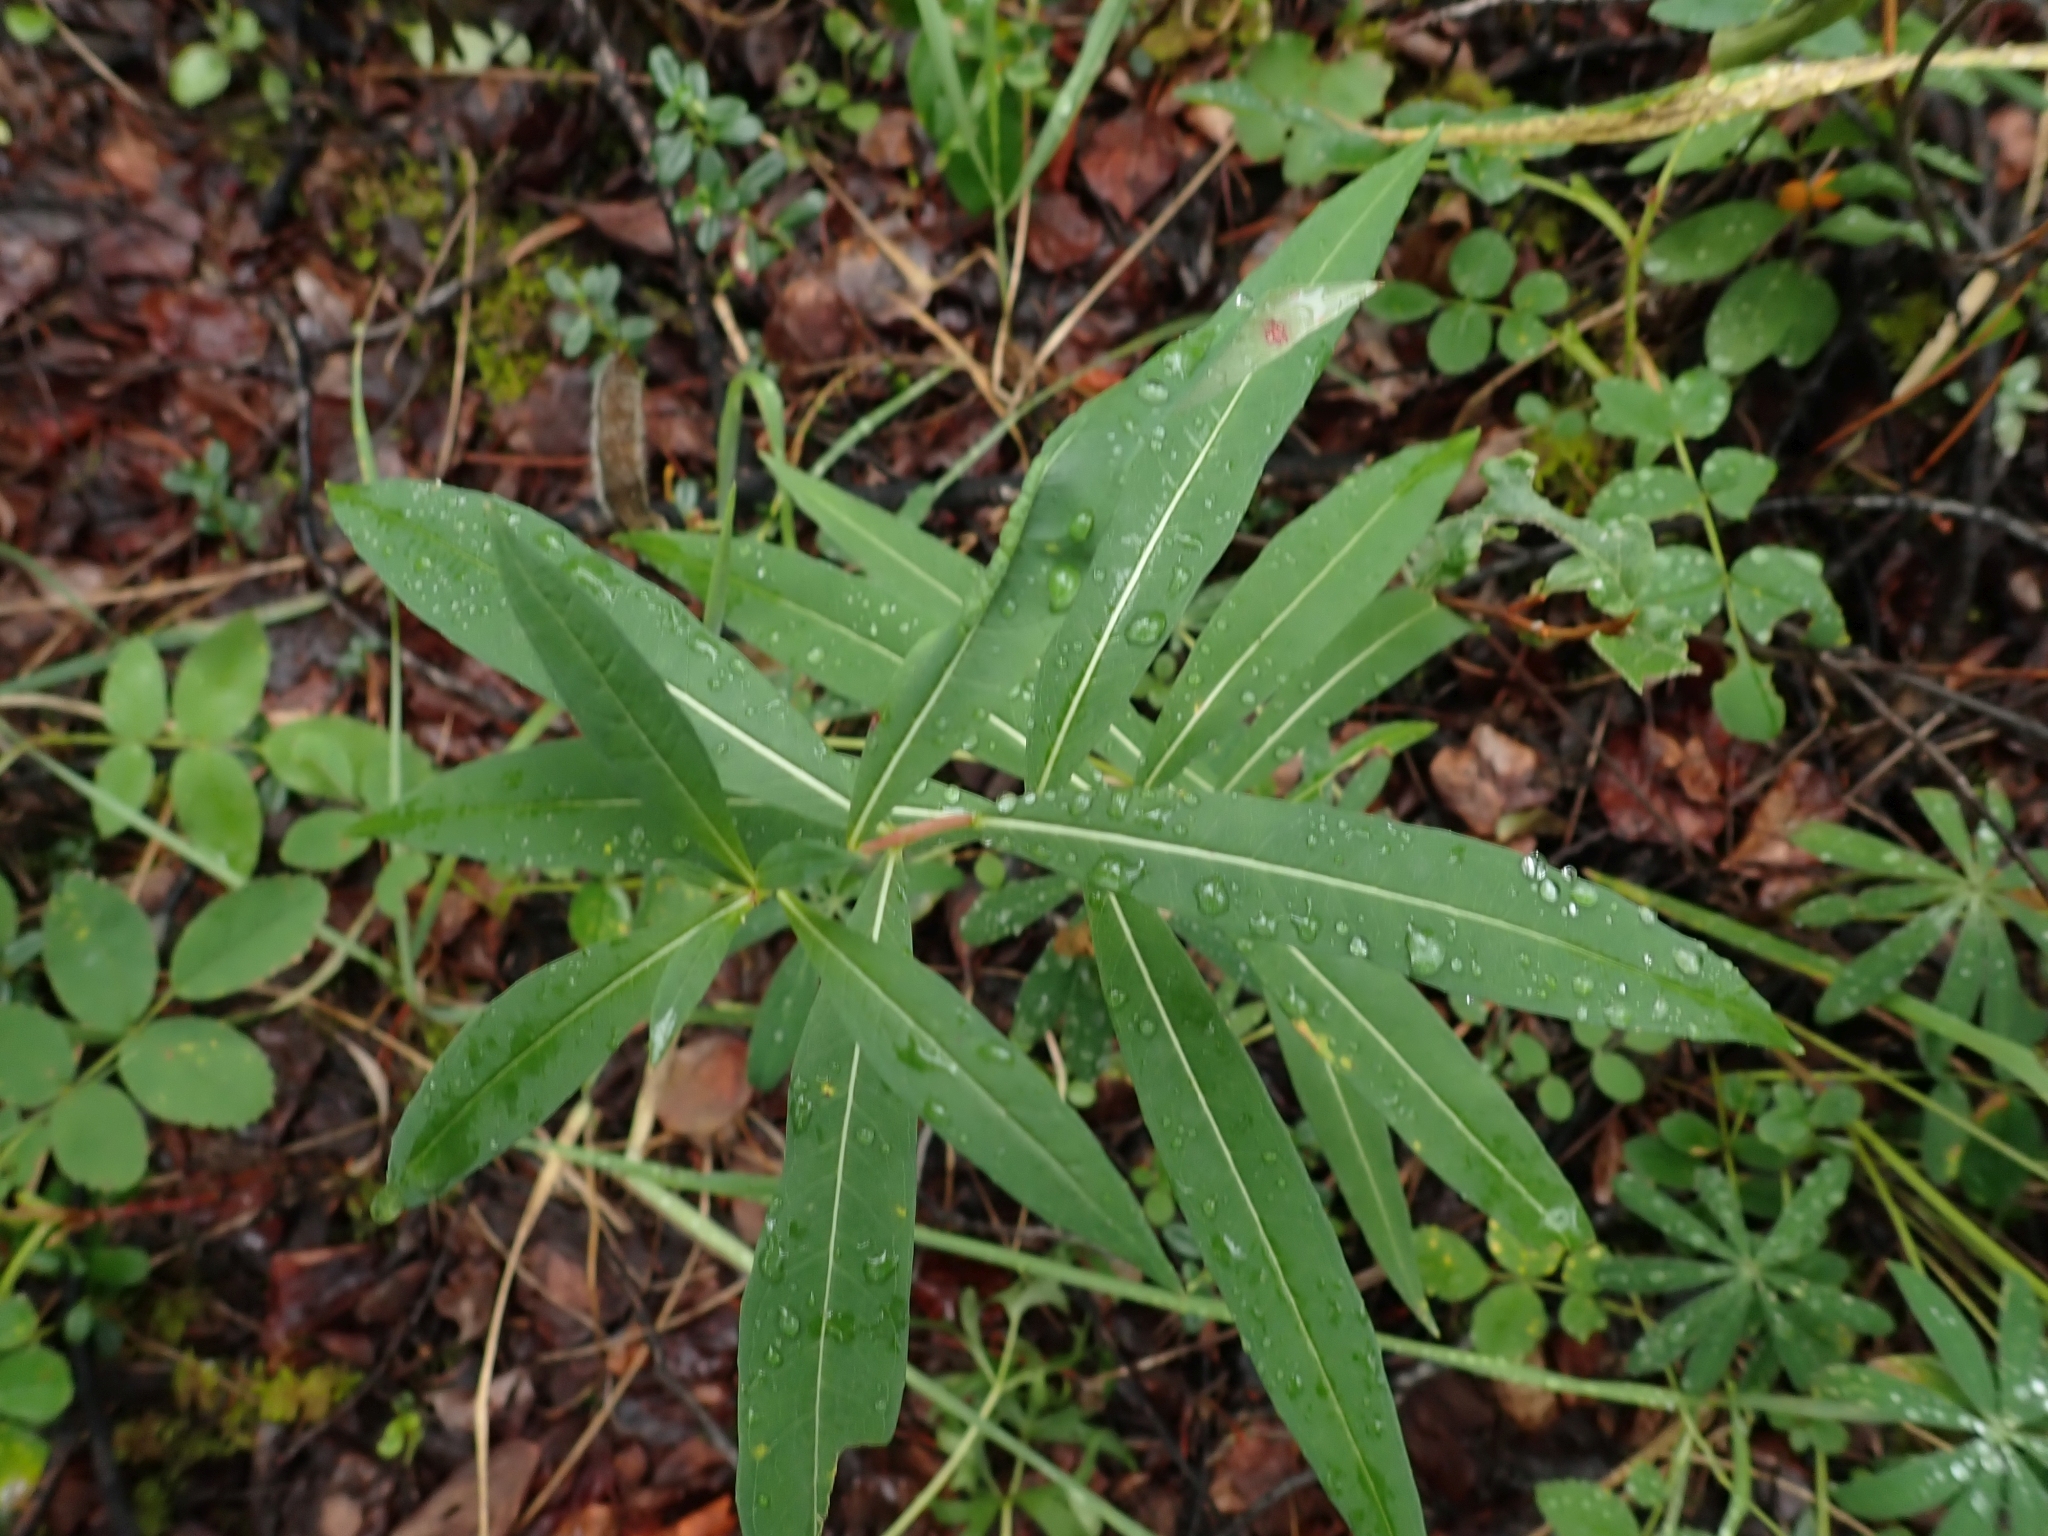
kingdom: Plantae
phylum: Tracheophyta
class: Magnoliopsida
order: Myrtales
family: Onagraceae
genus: Chamaenerion
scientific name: Chamaenerion angustifolium
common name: Fireweed
